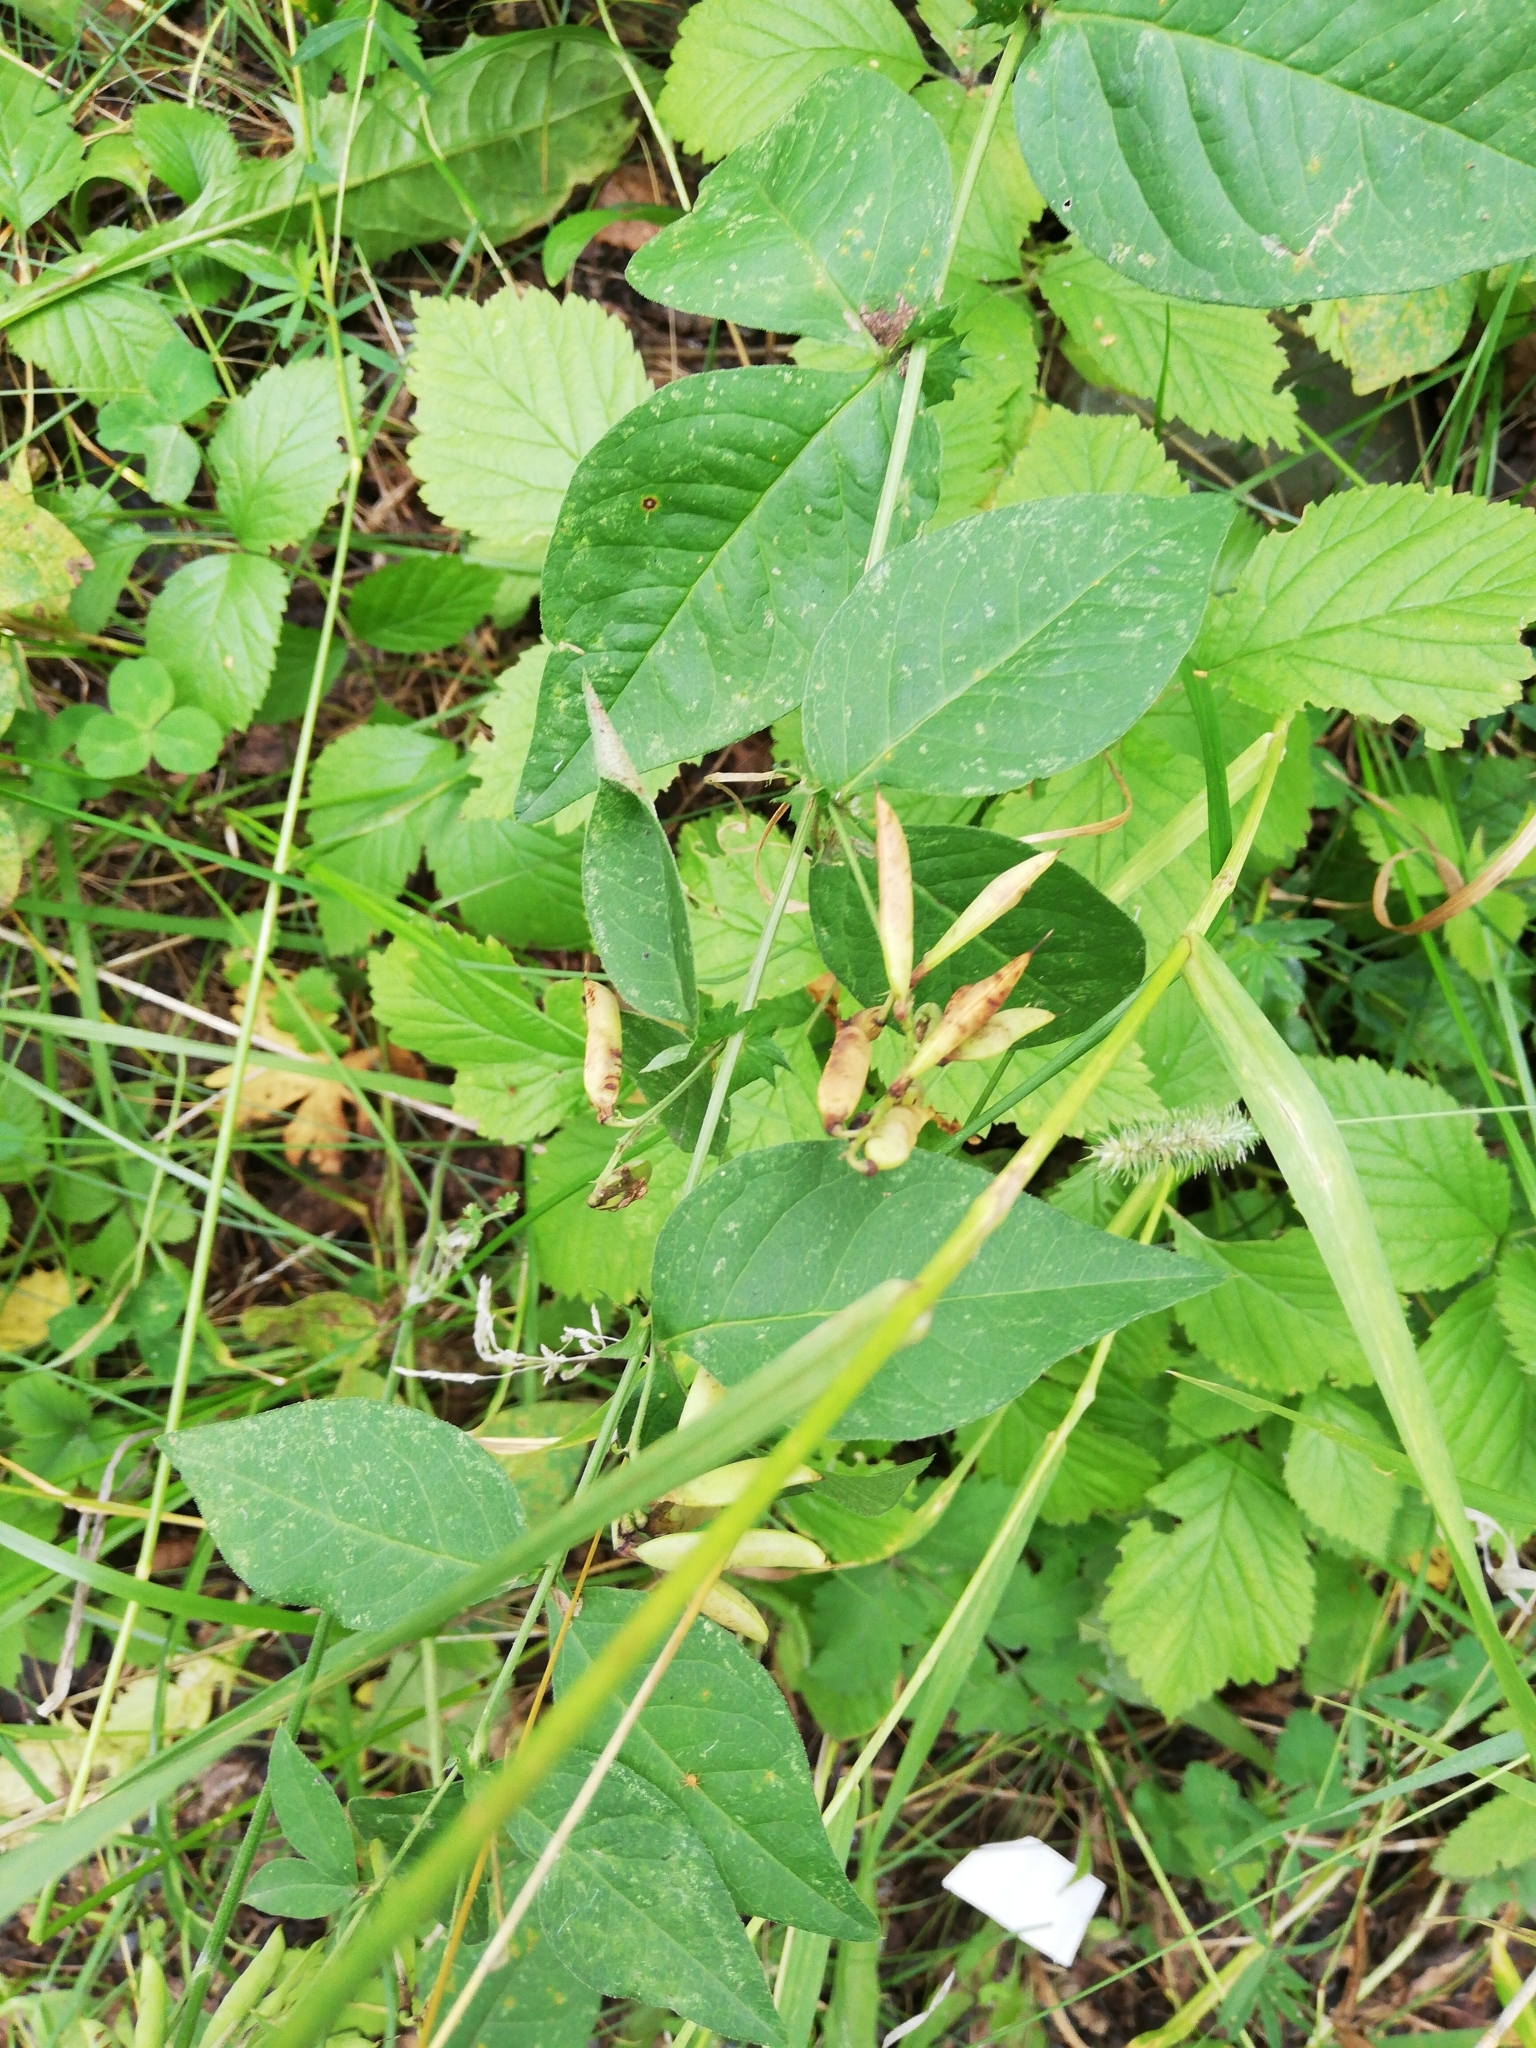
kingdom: Plantae
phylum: Tracheophyta
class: Magnoliopsida
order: Fabales
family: Fabaceae
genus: Vicia
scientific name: Vicia unijuga
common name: Two-leaf vetch
